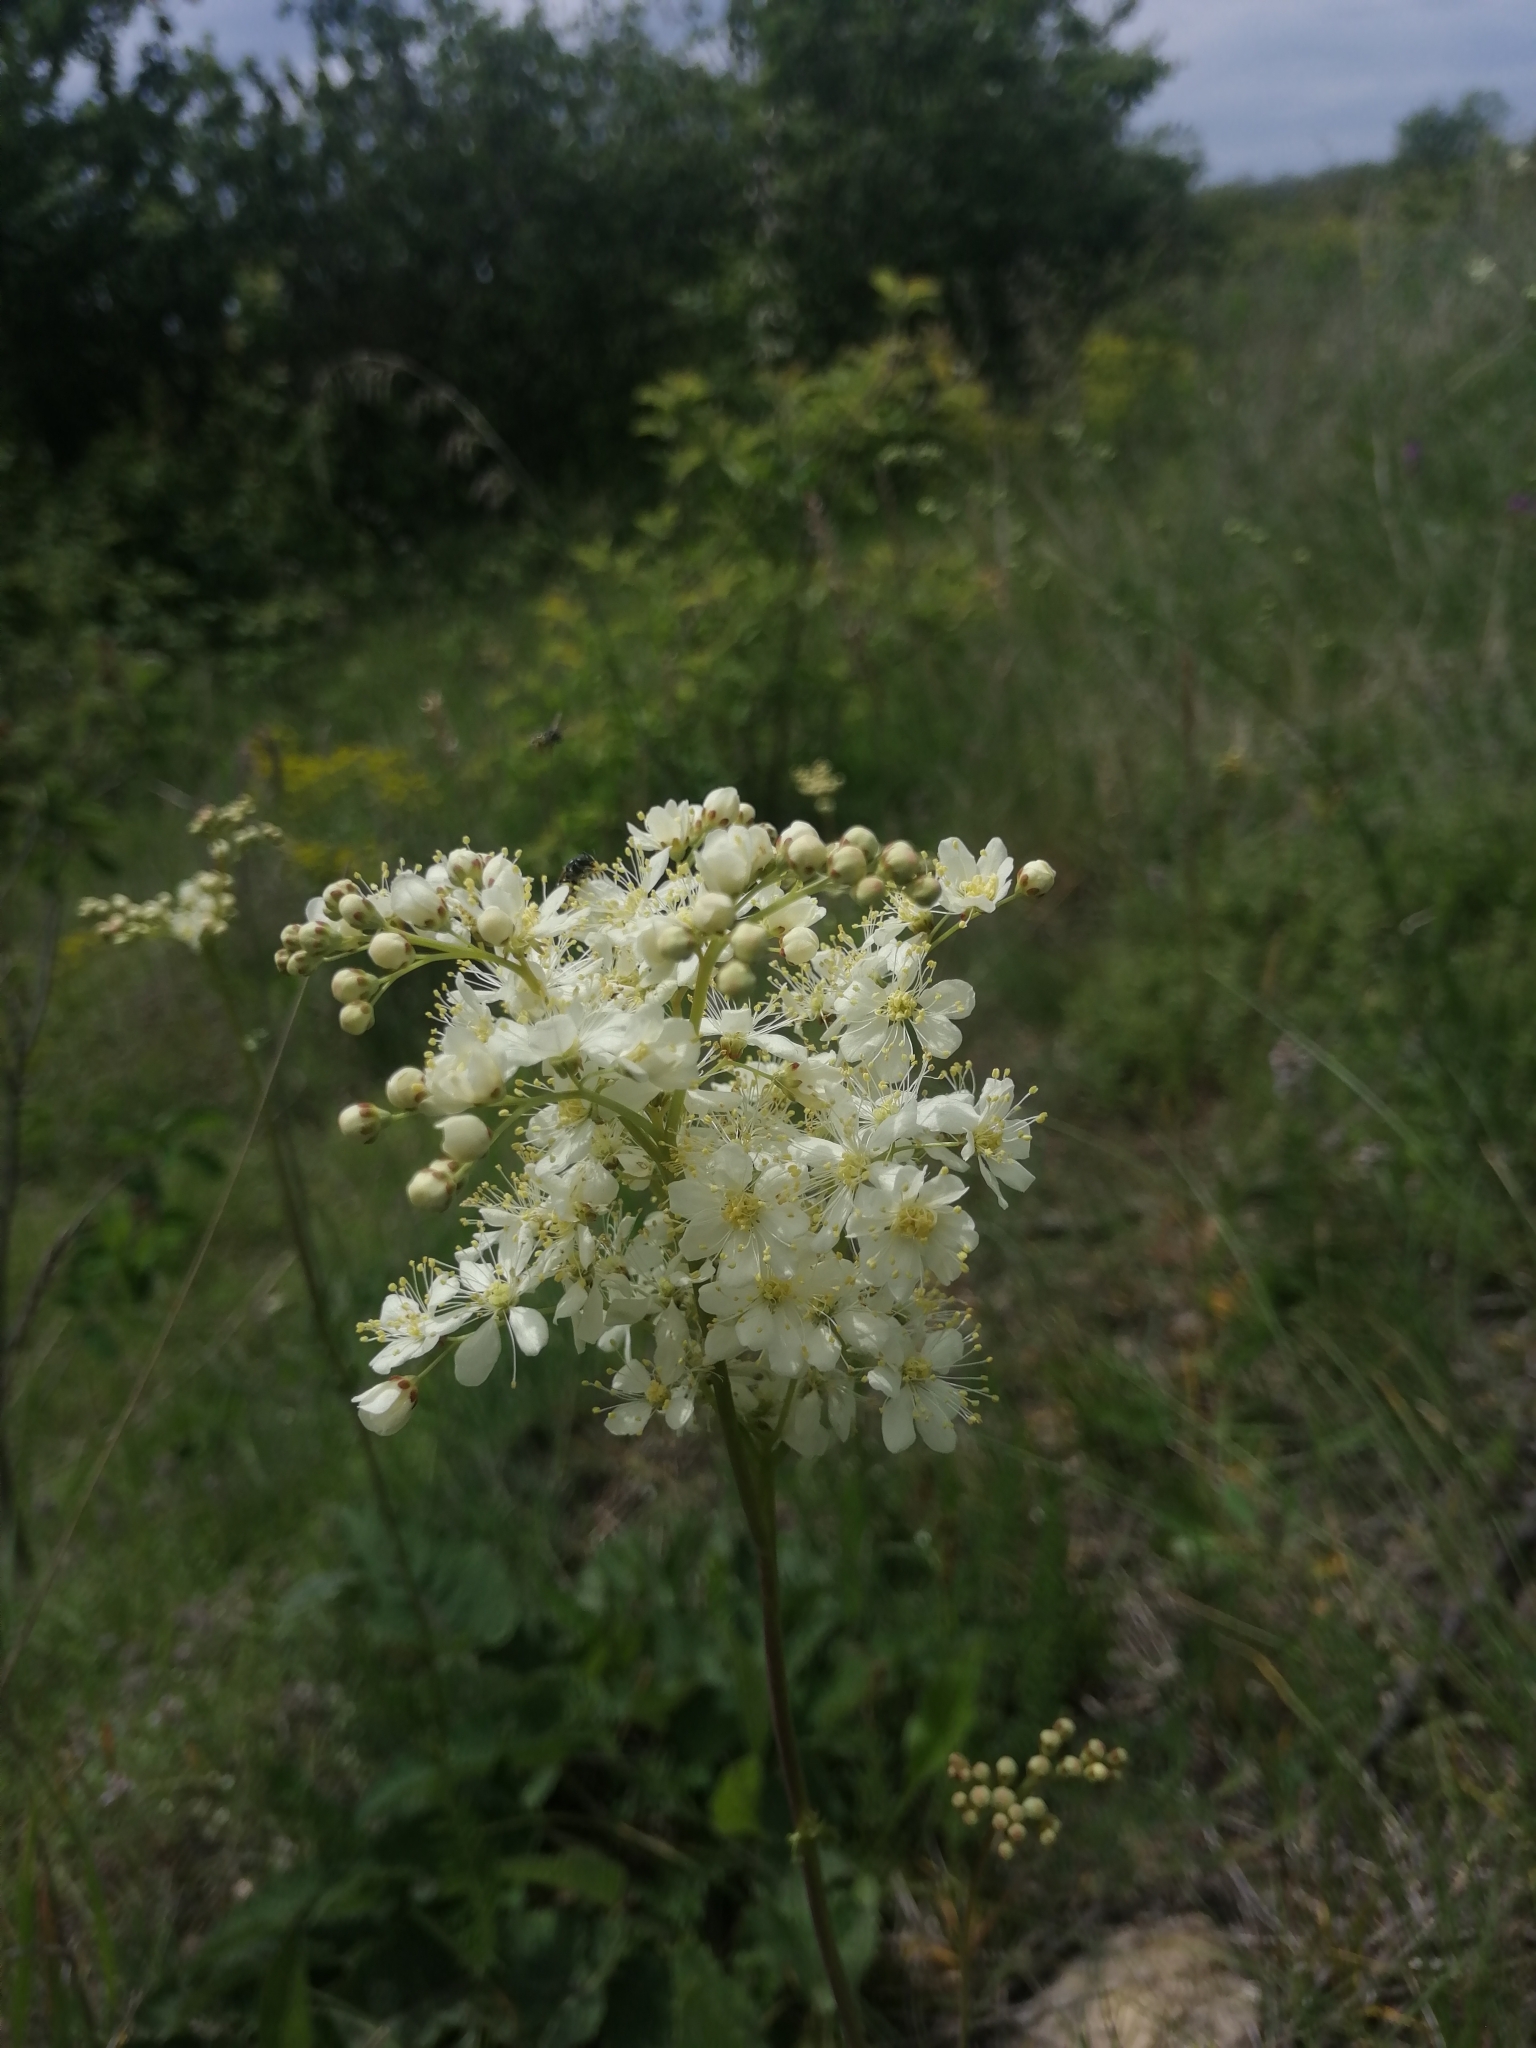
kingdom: Plantae
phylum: Tracheophyta
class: Magnoliopsida
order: Rosales
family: Rosaceae
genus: Filipendula
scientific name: Filipendula vulgaris
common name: Dropwort
